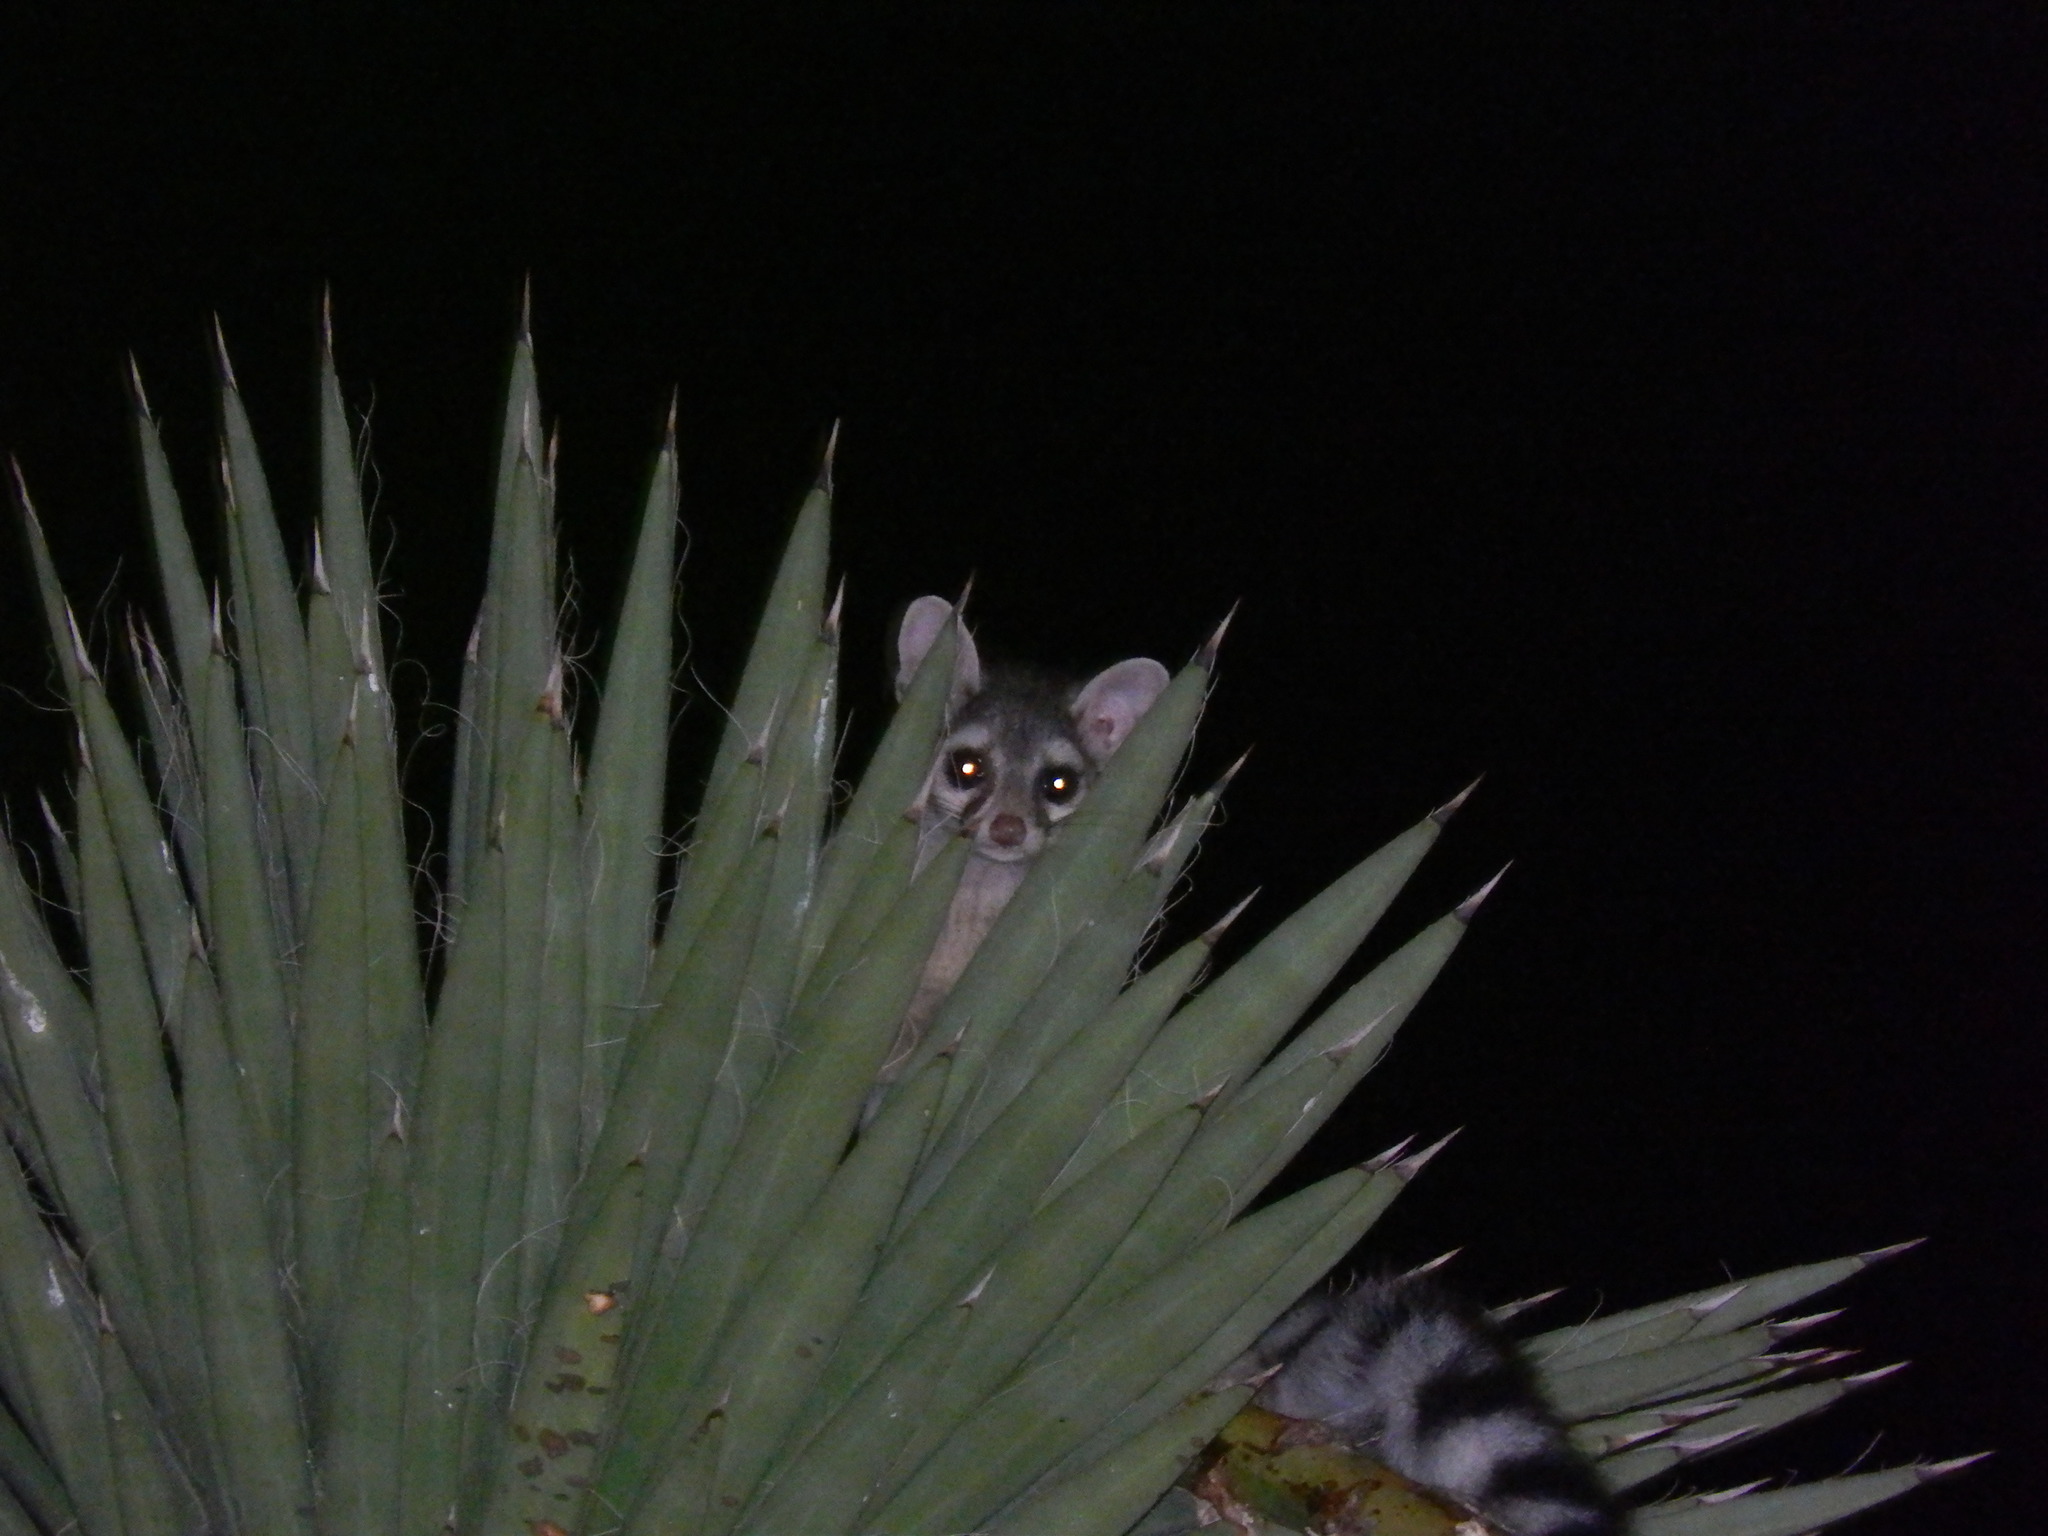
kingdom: Animalia
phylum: Chordata
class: Mammalia
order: Carnivora
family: Procyonidae
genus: Bassariscus
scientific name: Bassariscus astutus
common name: Ringtail
